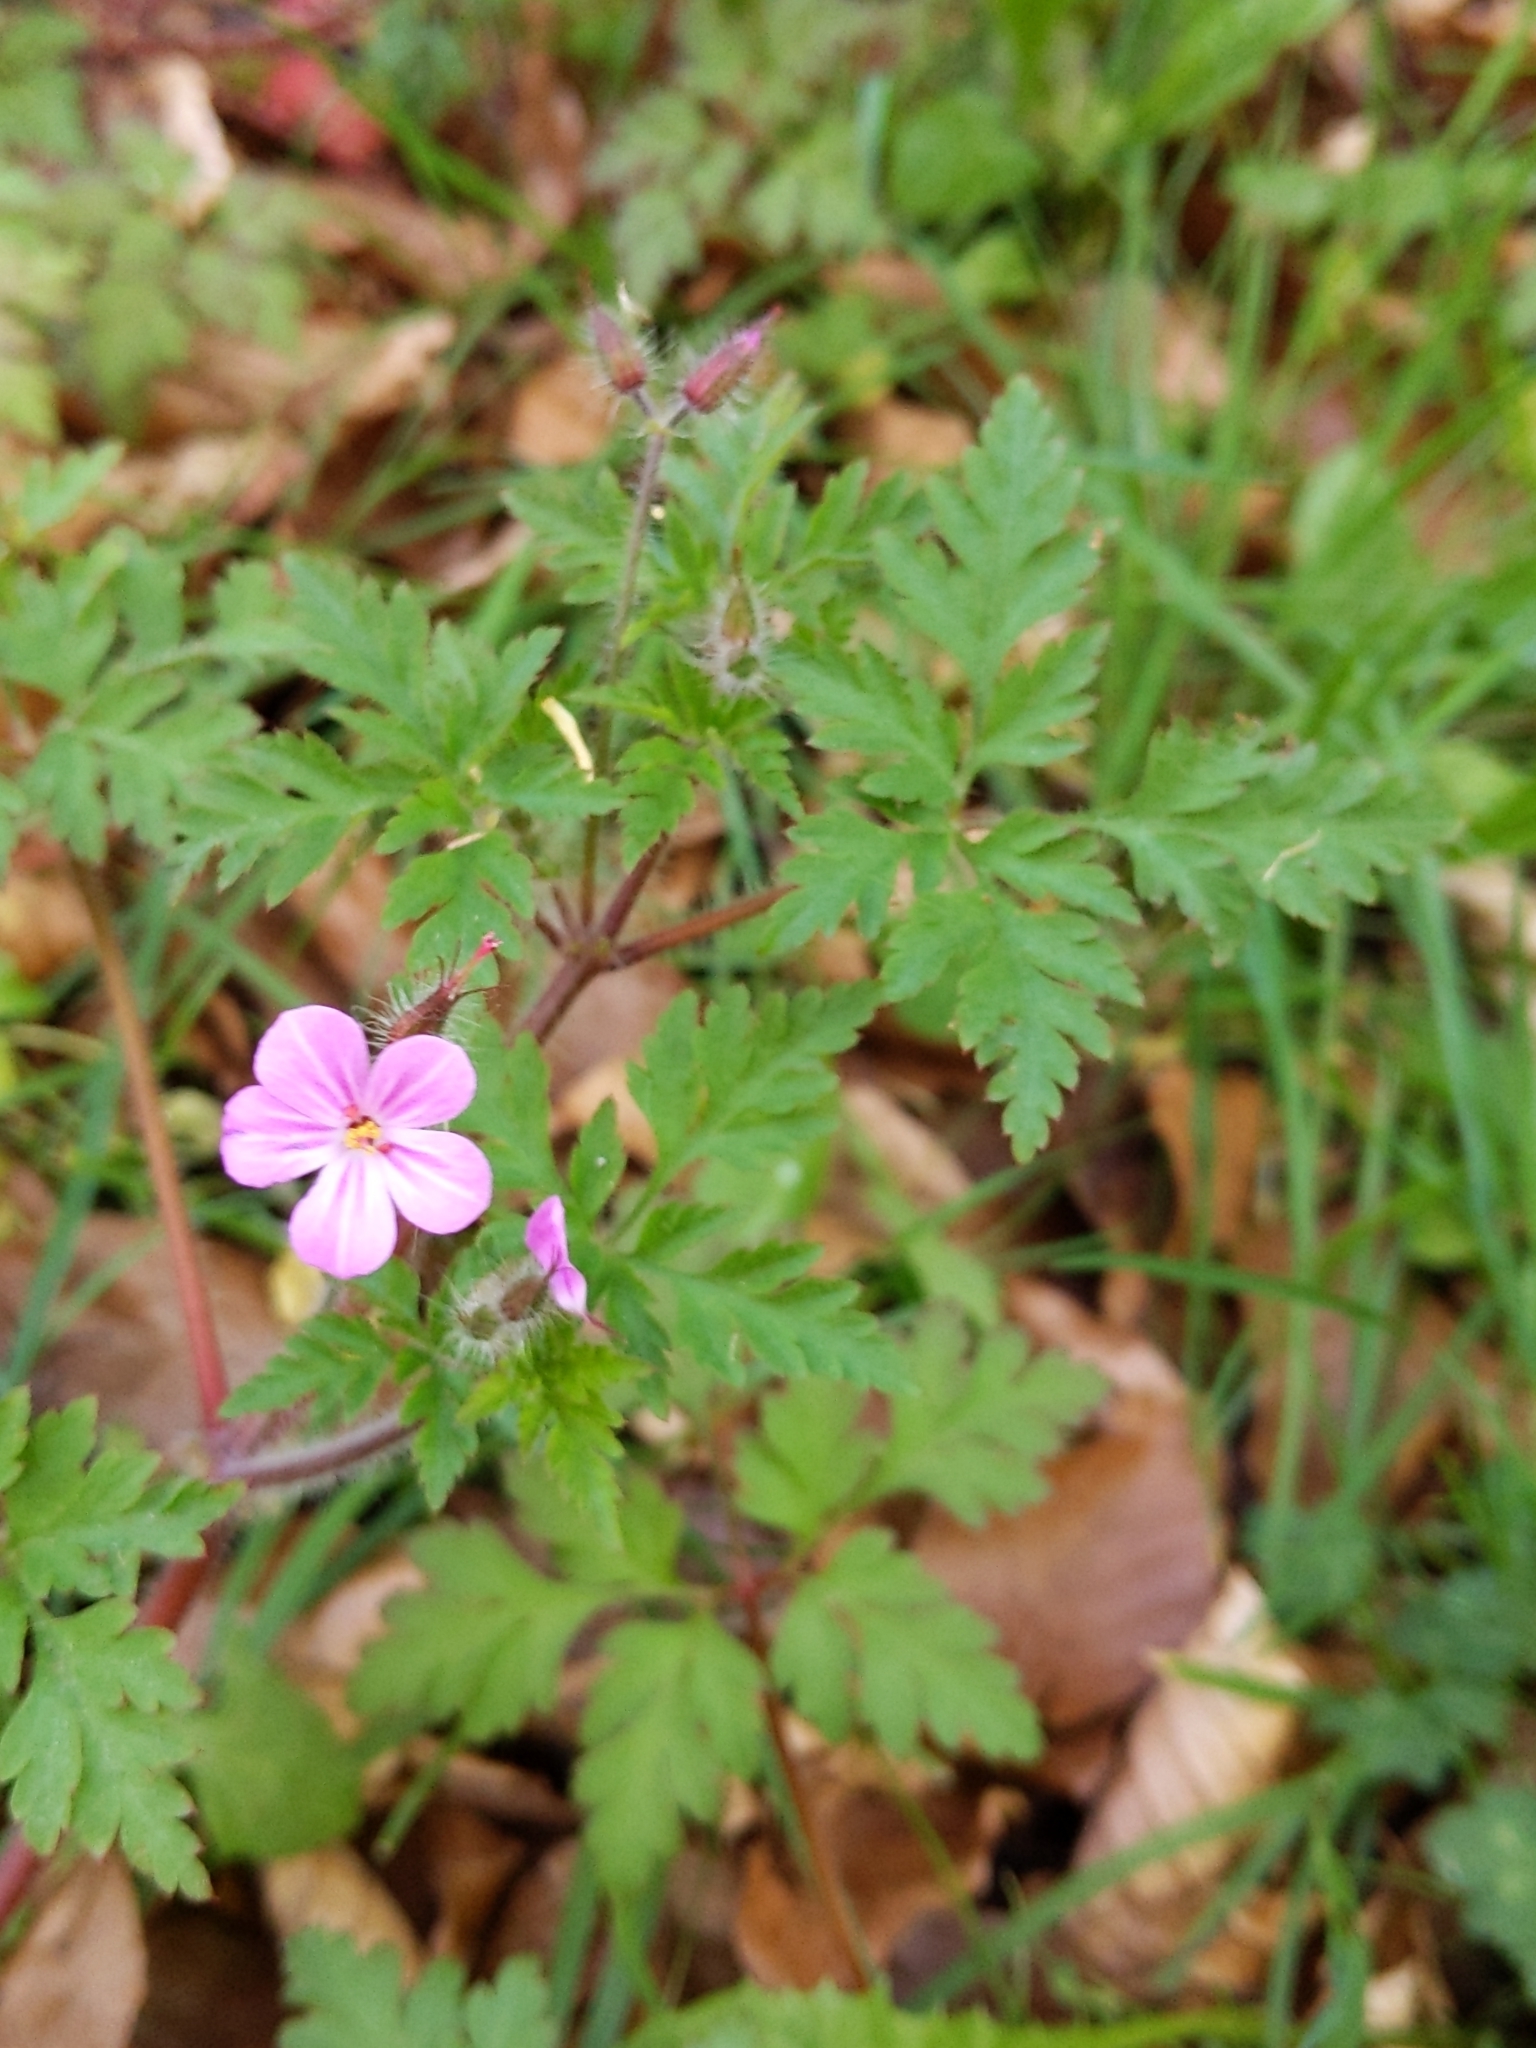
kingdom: Plantae
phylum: Tracheophyta
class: Magnoliopsida
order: Geraniales
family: Geraniaceae
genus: Geranium
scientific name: Geranium robertianum
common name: Herb-robert
